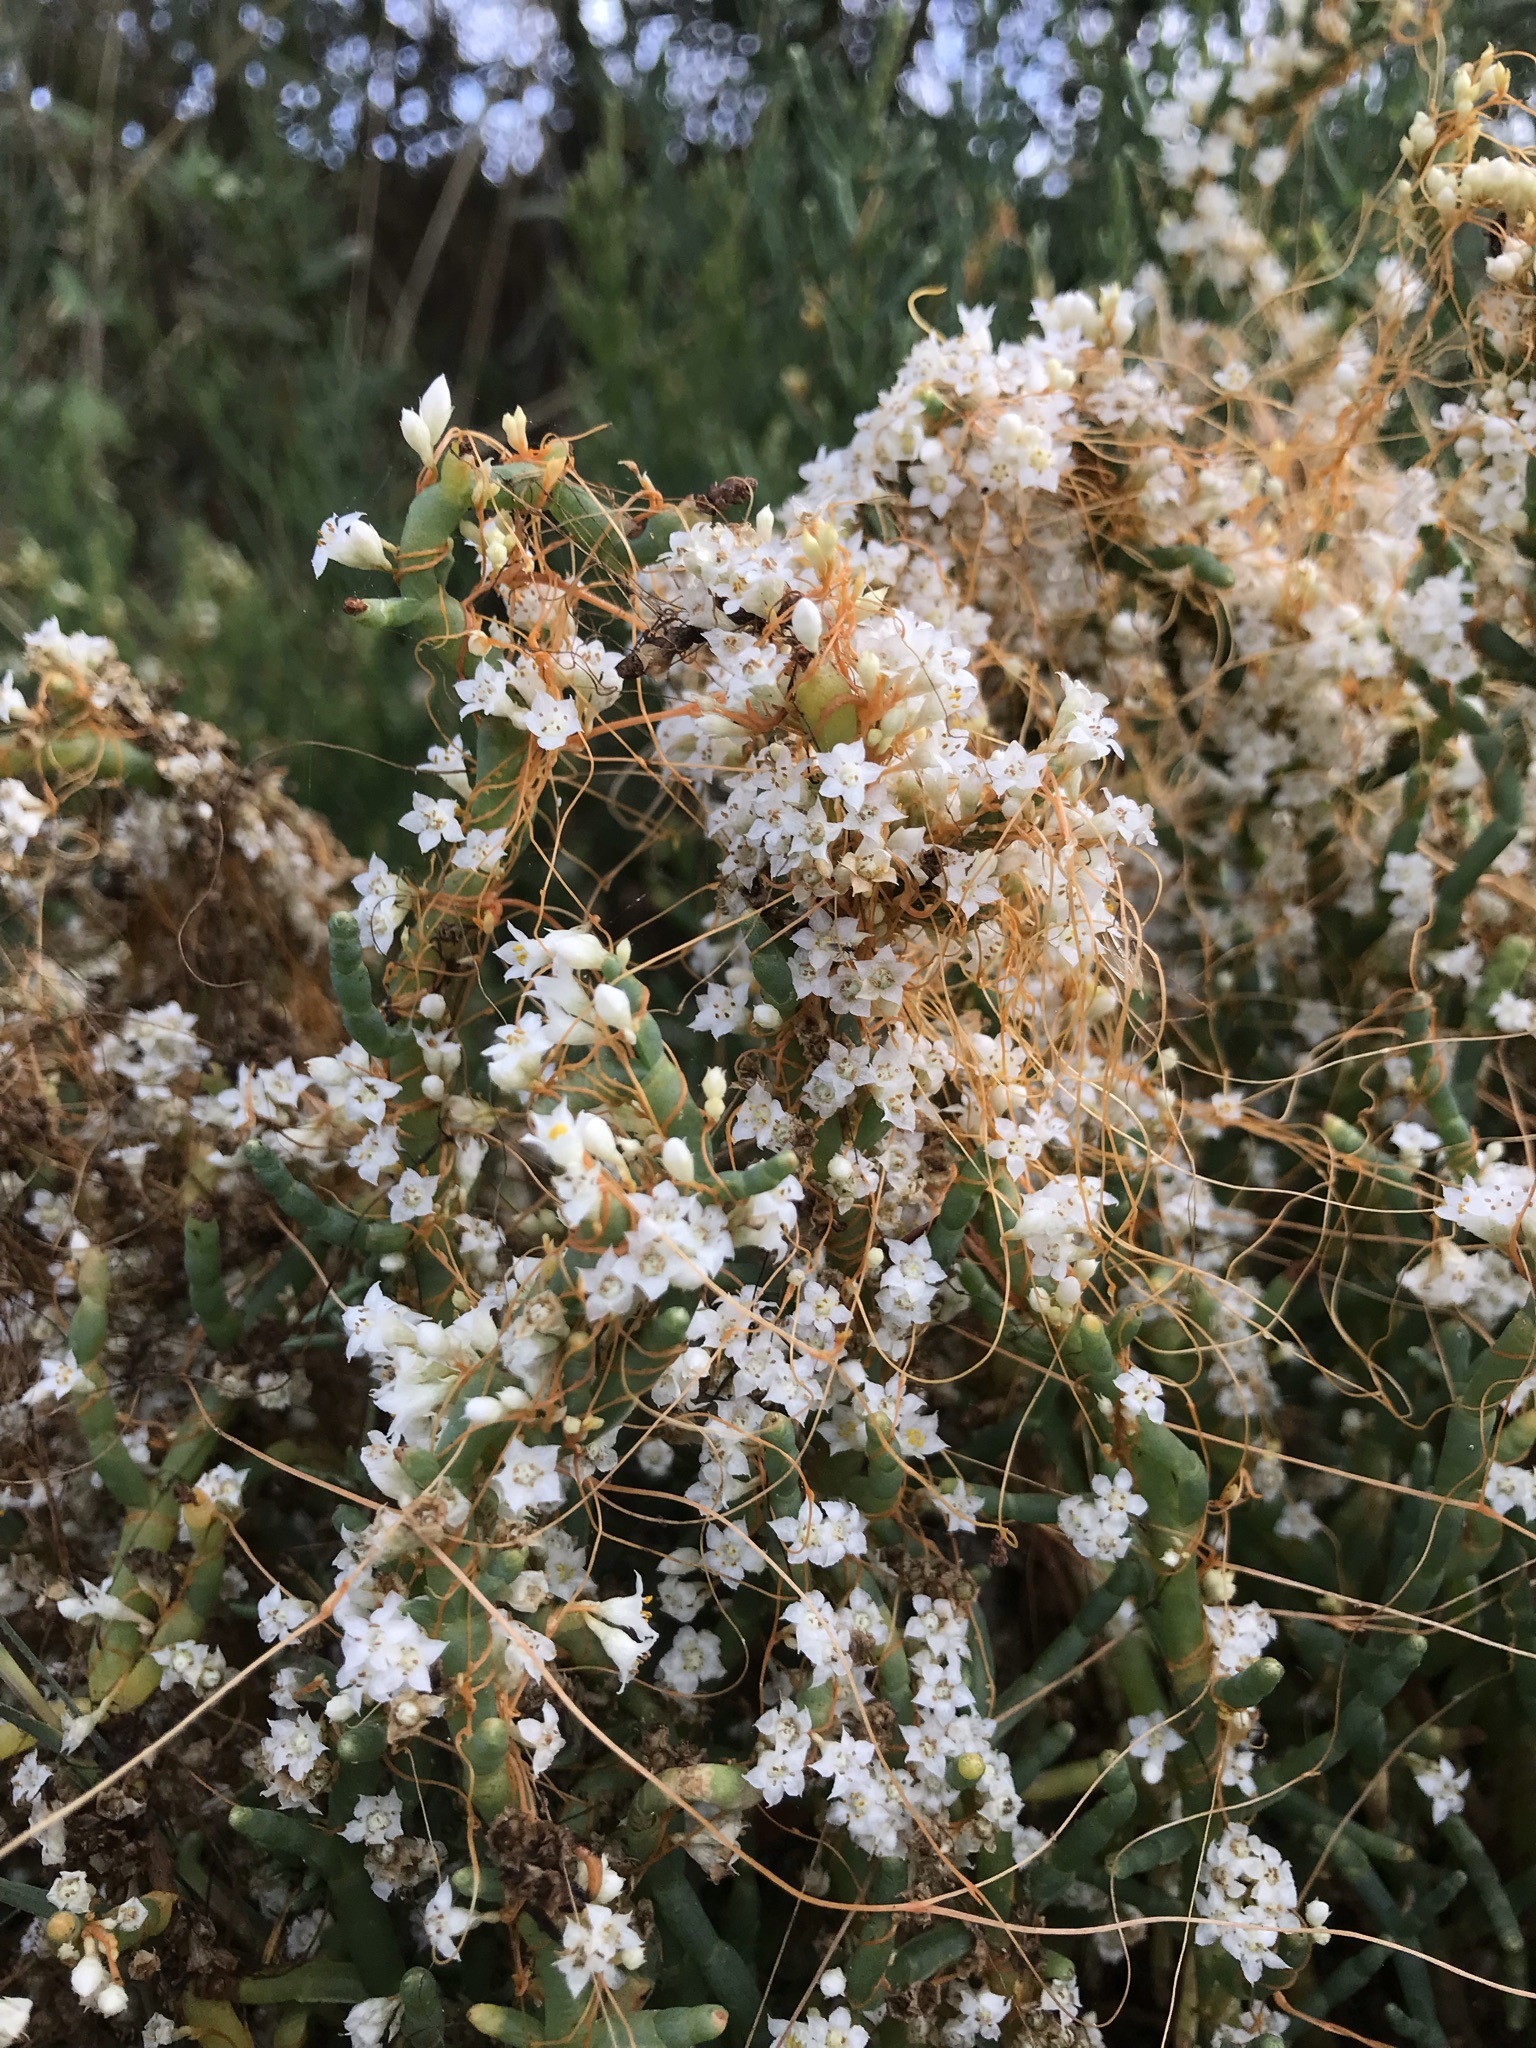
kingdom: Plantae
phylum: Tracheophyta
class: Magnoliopsida
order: Solanales
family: Convolvulaceae
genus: Cuscuta
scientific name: Cuscuta pacifica
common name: Large saltmarsh dodder
